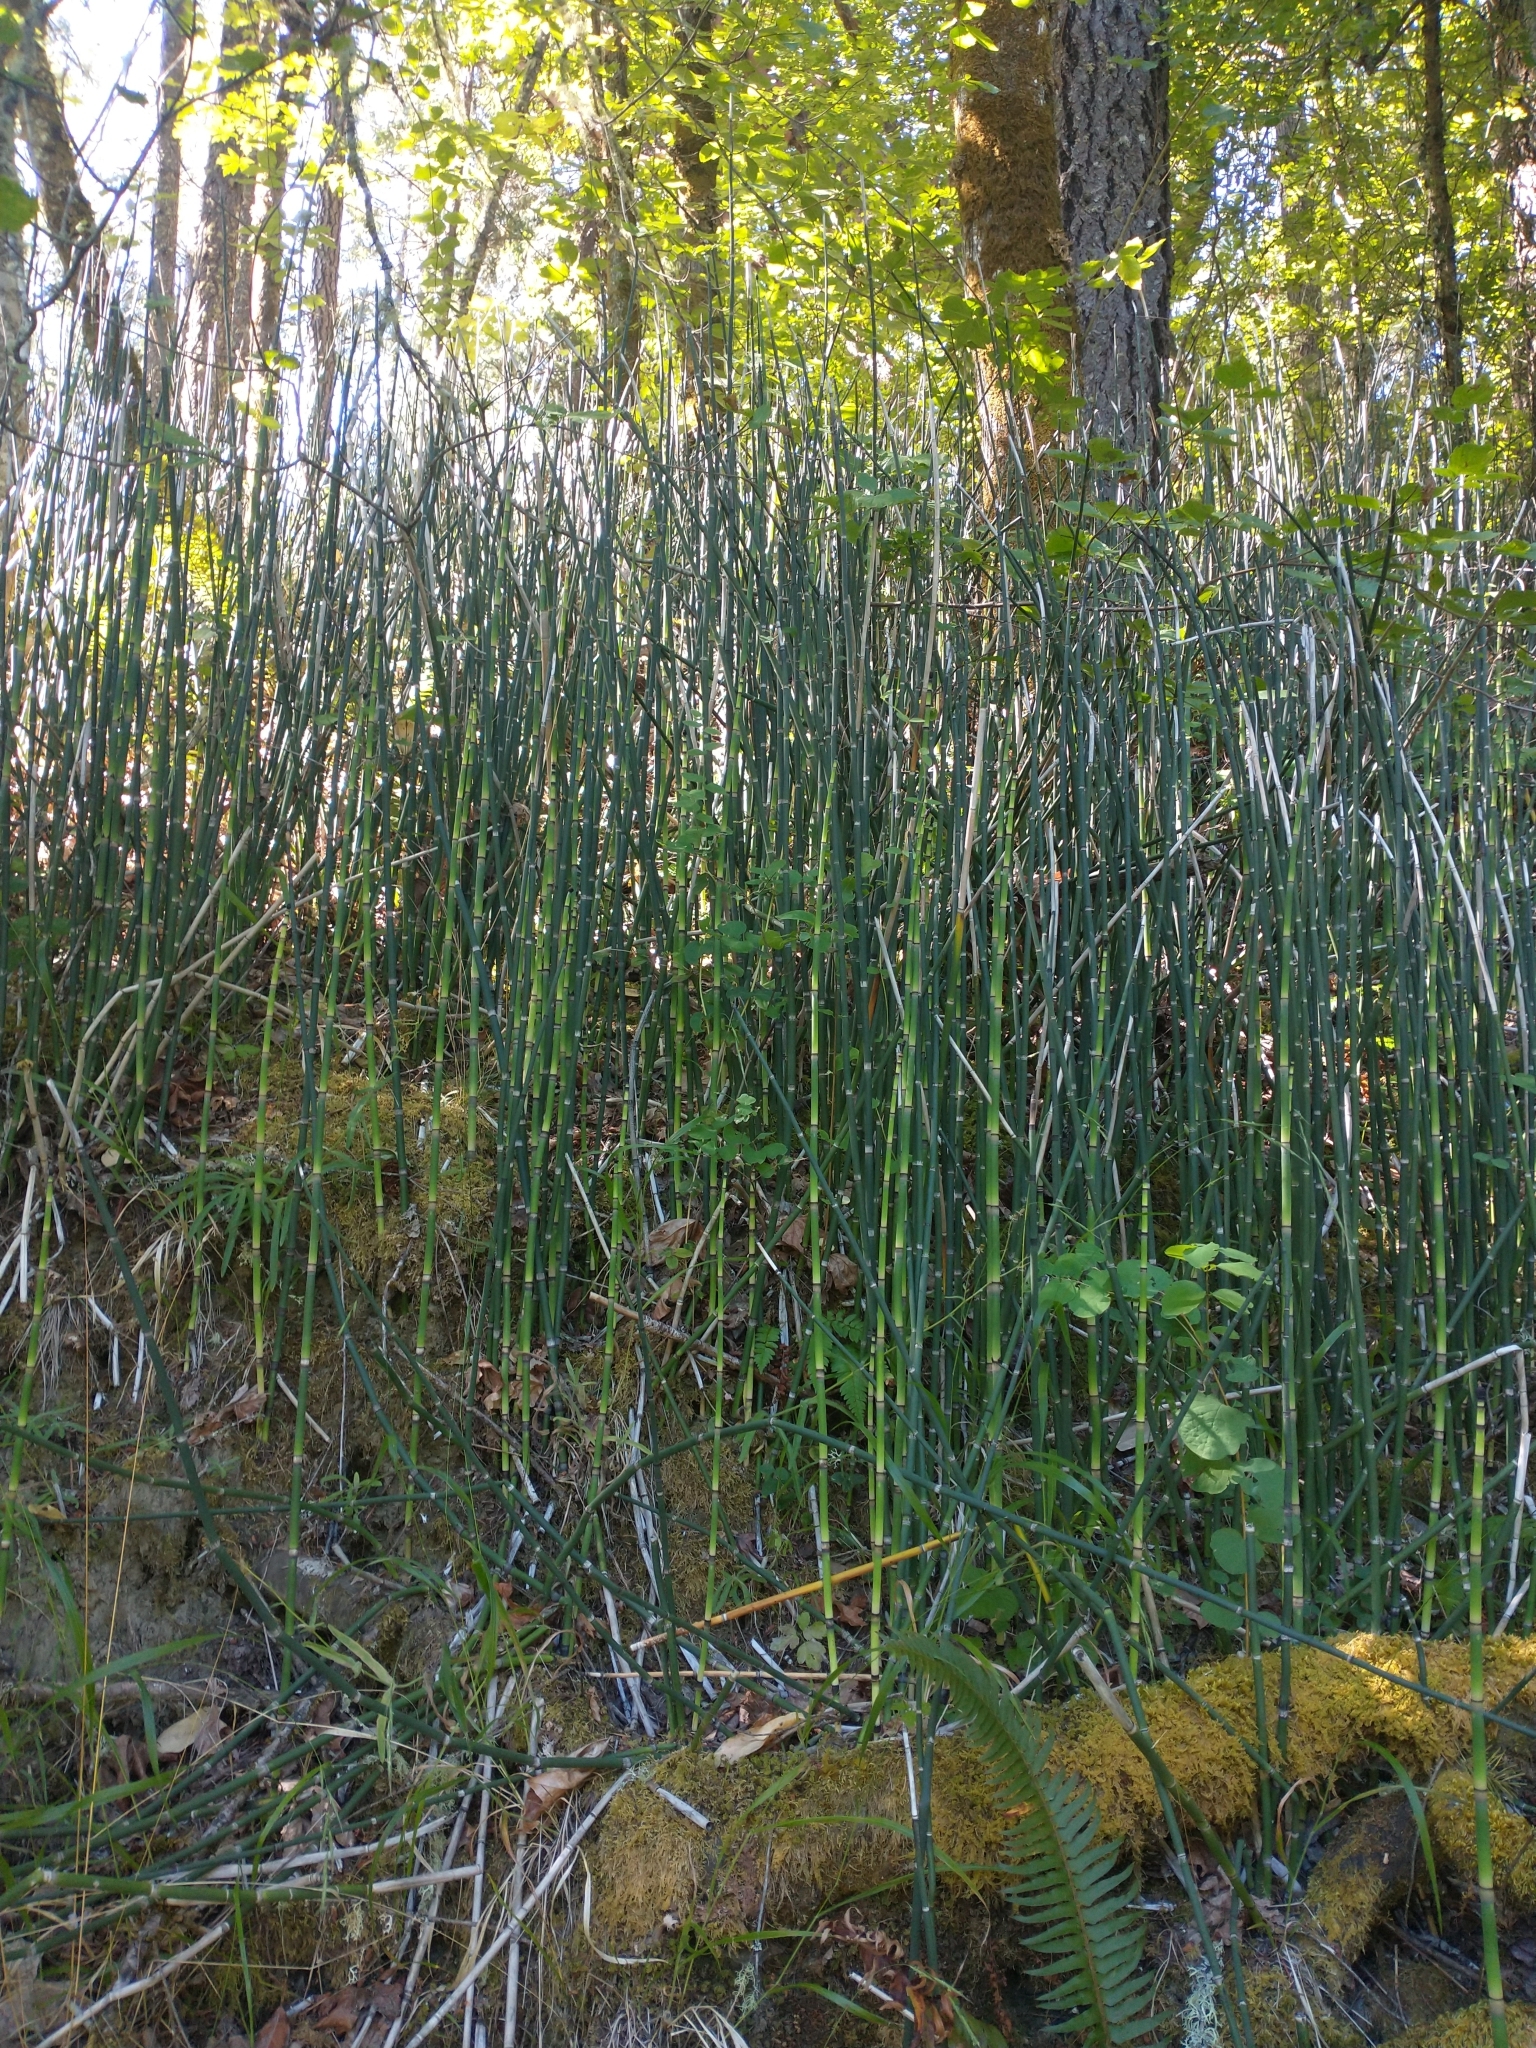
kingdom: Plantae
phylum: Tracheophyta
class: Polypodiopsida
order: Equisetales
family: Equisetaceae
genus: Equisetum
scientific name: Equisetum praealtum
